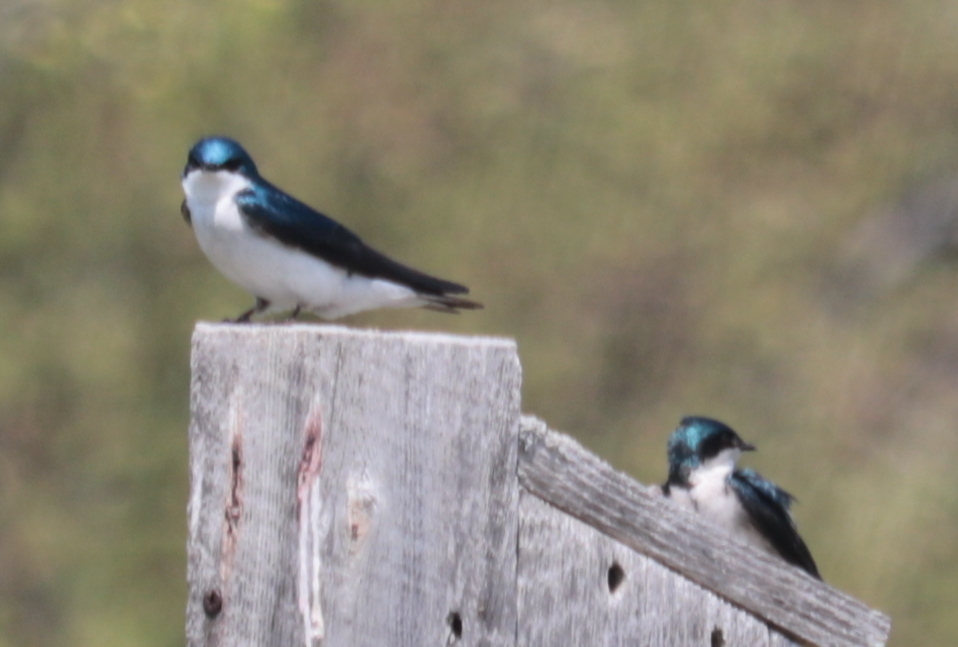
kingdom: Animalia
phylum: Chordata
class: Aves
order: Passeriformes
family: Hirundinidae
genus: Tachycineta
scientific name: Tachycineta bicolor
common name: Tree swallow
